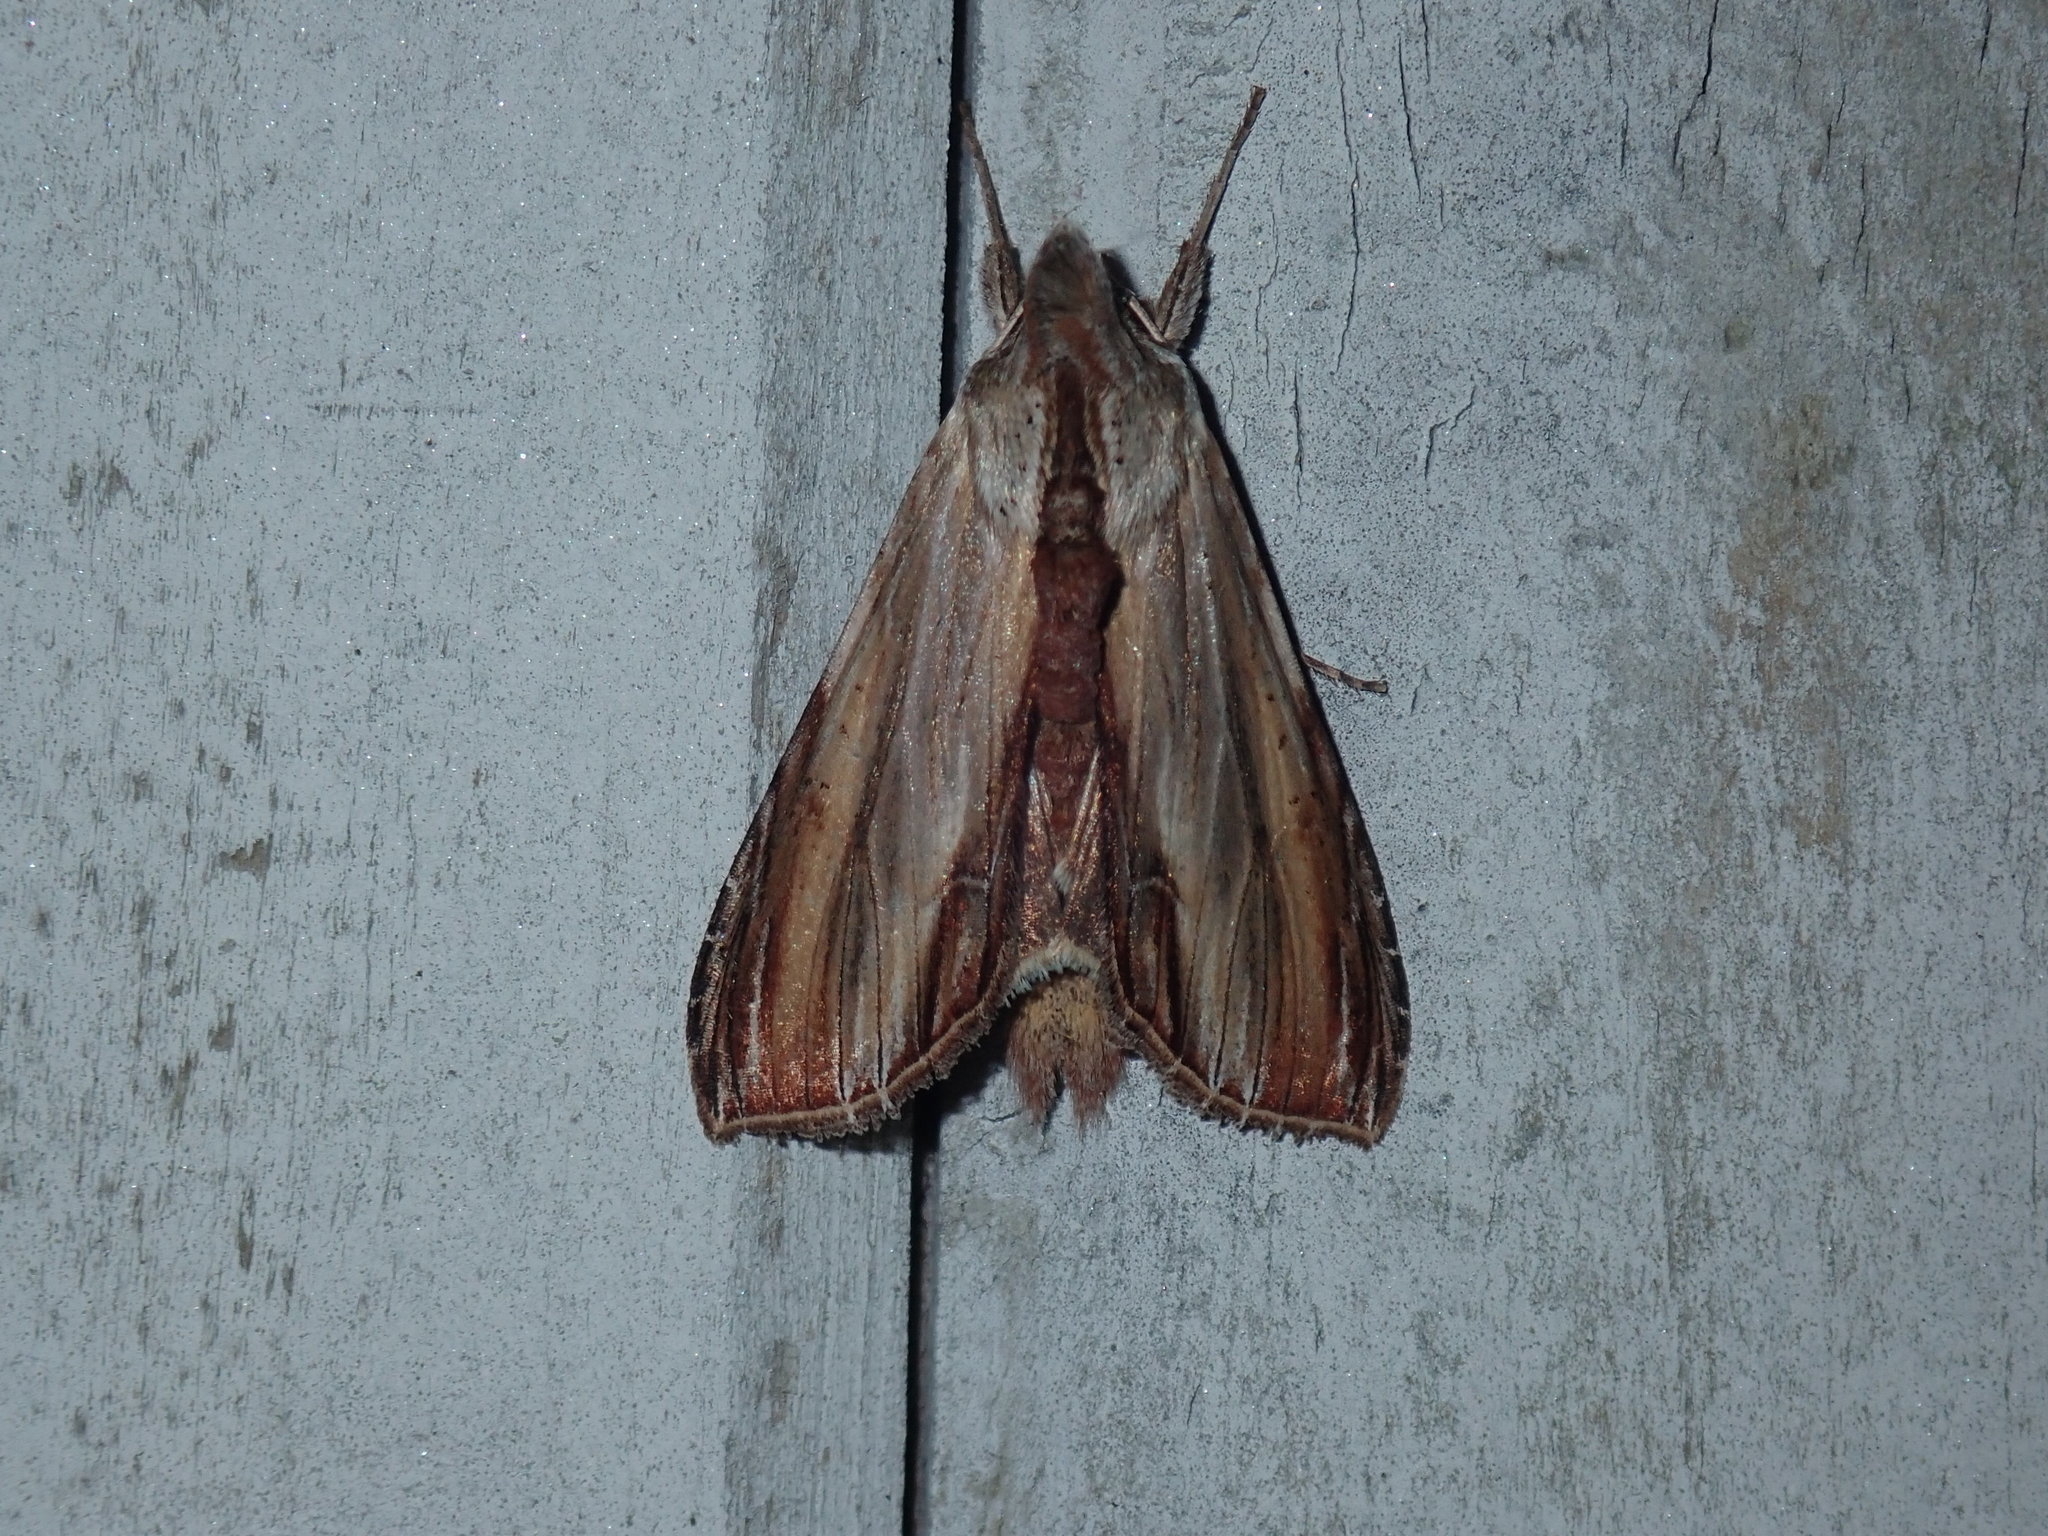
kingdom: Animalia
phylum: Arthropoda
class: Insecta
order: Lepidoptera
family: Noctuidae
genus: Cucullia
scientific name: Cucullia convexipennis
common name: Brown-hooded owlet
